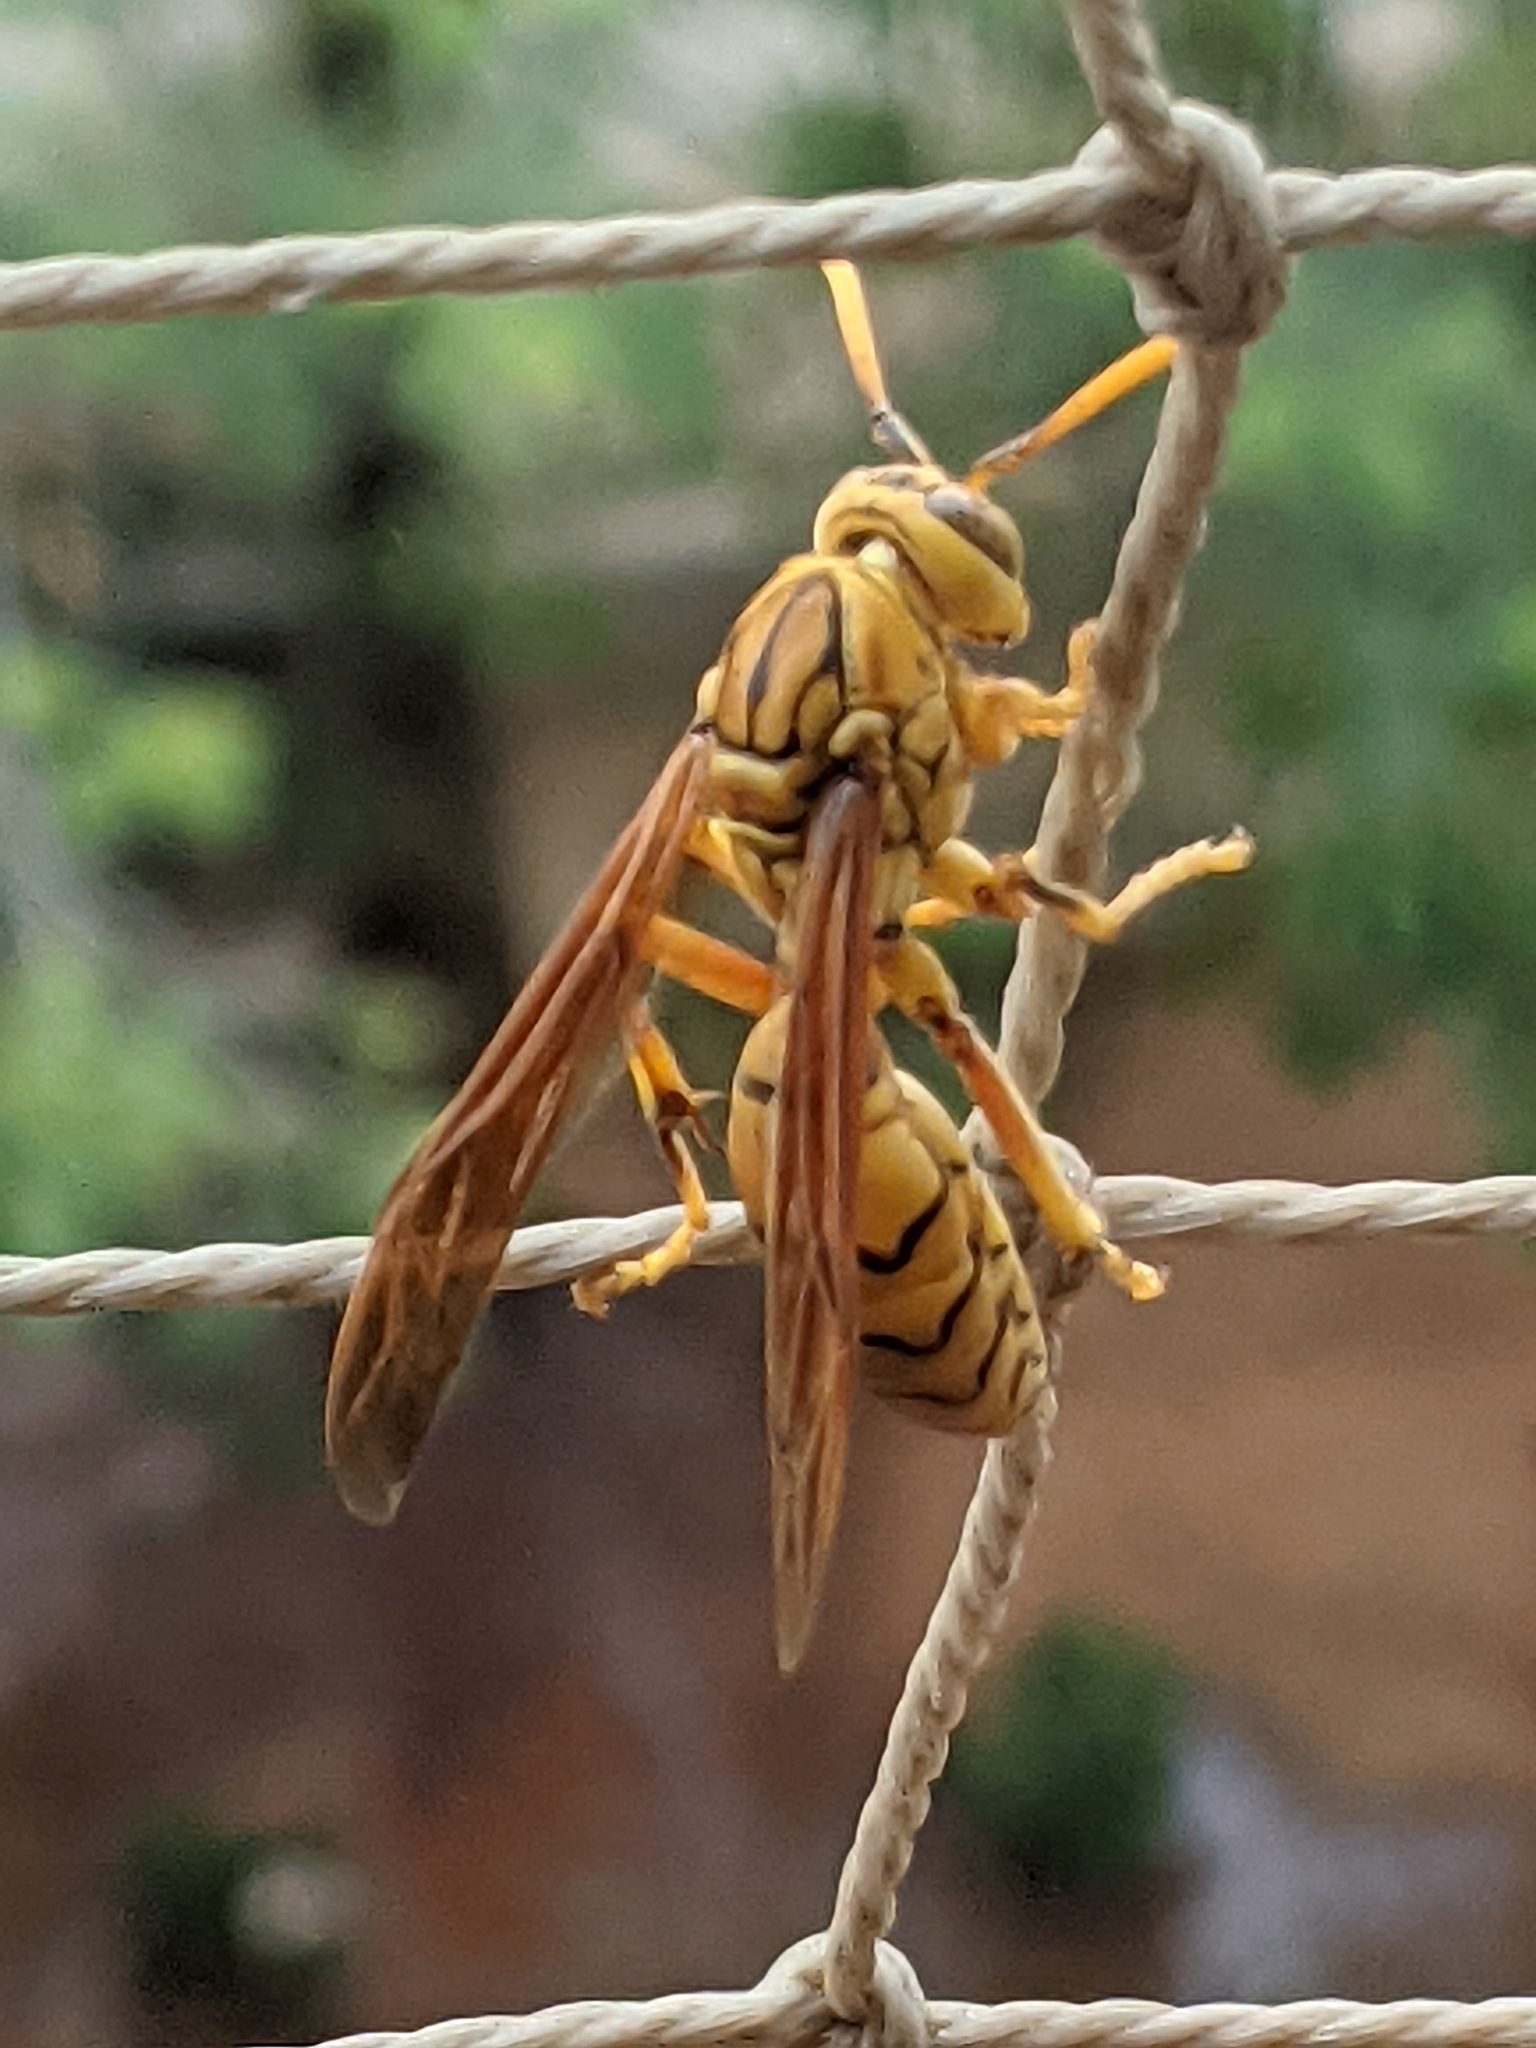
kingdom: Animalia
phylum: Arthropoda
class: Insecta
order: Hymenoptera
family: Eumenidae
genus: Polistes
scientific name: Polistes olivaceus
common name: Paper wasp
